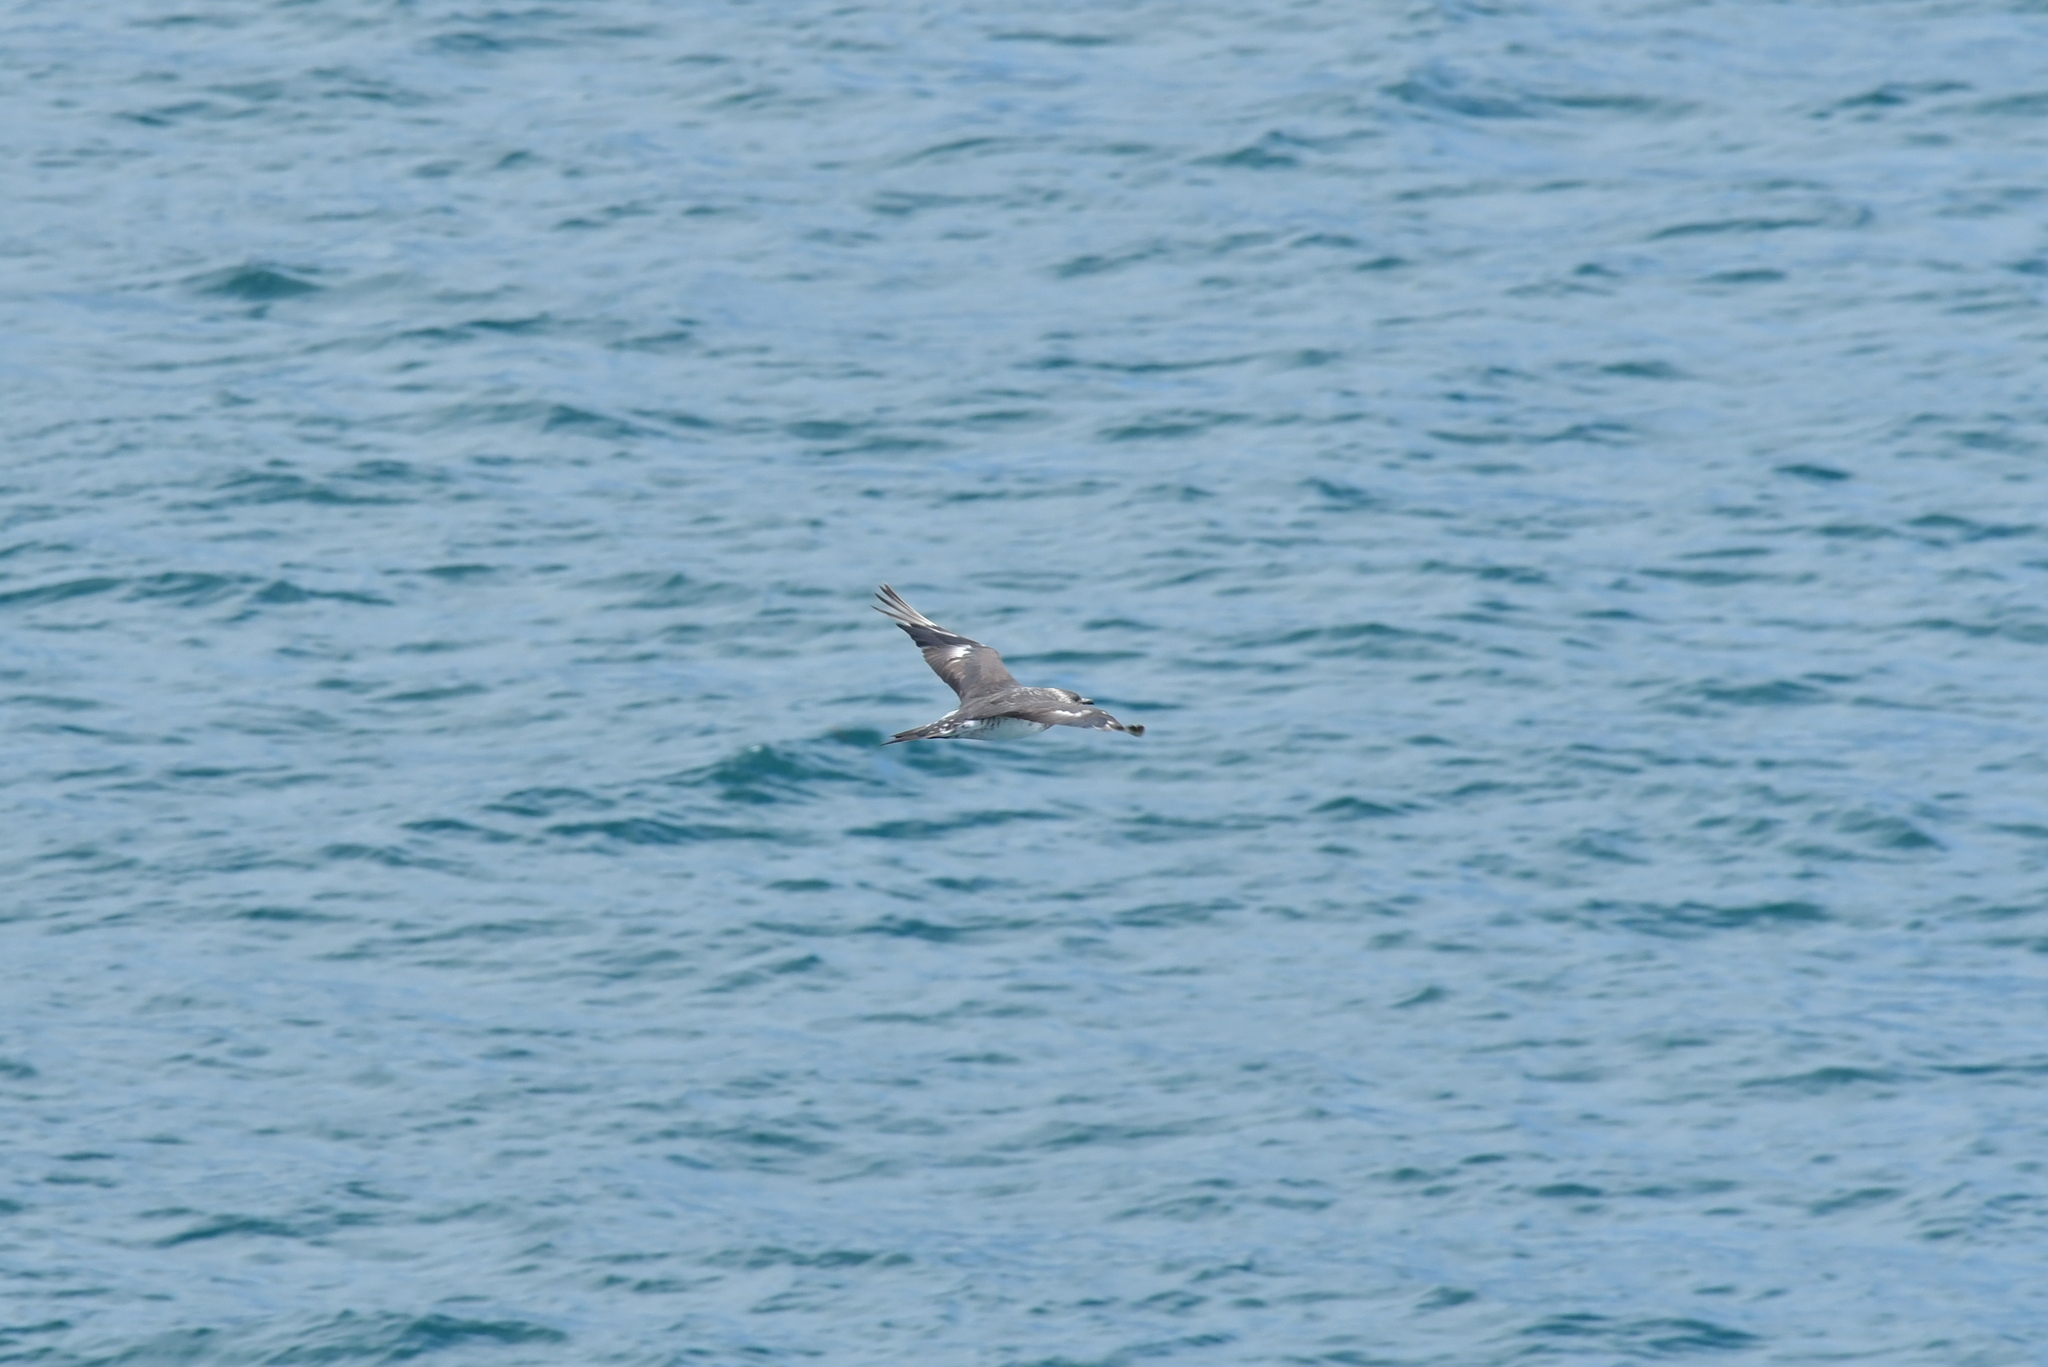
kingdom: Animalia
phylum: Chordata
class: Aves
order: Charadriiformes
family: Stercorariidae
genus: Stercorarius
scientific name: Stercorarius parasiticus
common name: Parasitic jaeger
